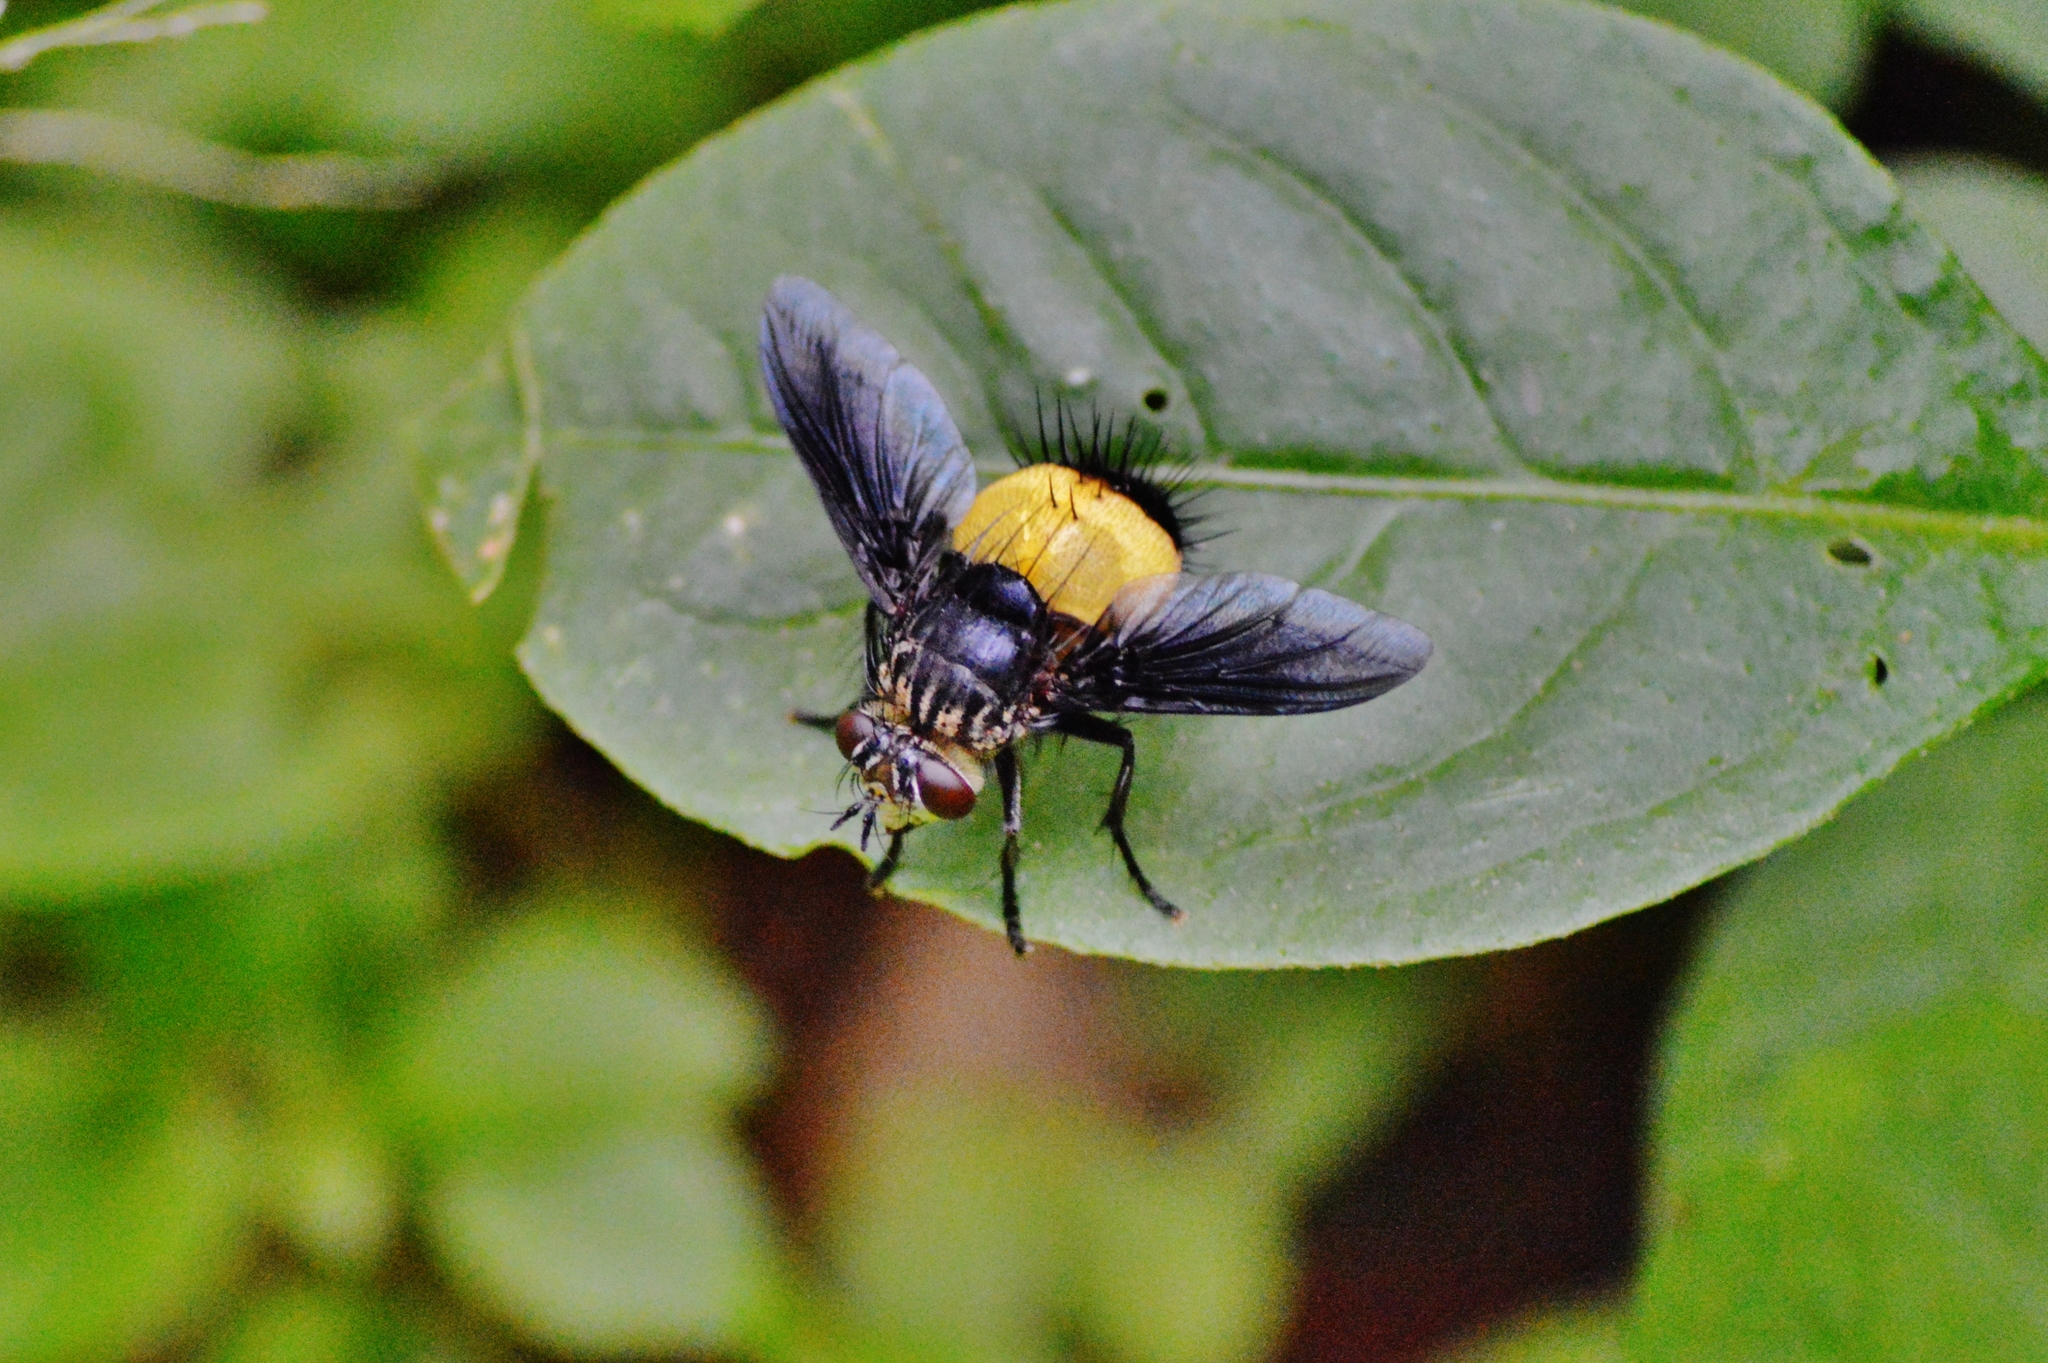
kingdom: Animalia
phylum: Arthropoda
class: Insecta
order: Diptera
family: Tachinidae
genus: Xanthozona
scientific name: Xanthozona melanopyga
